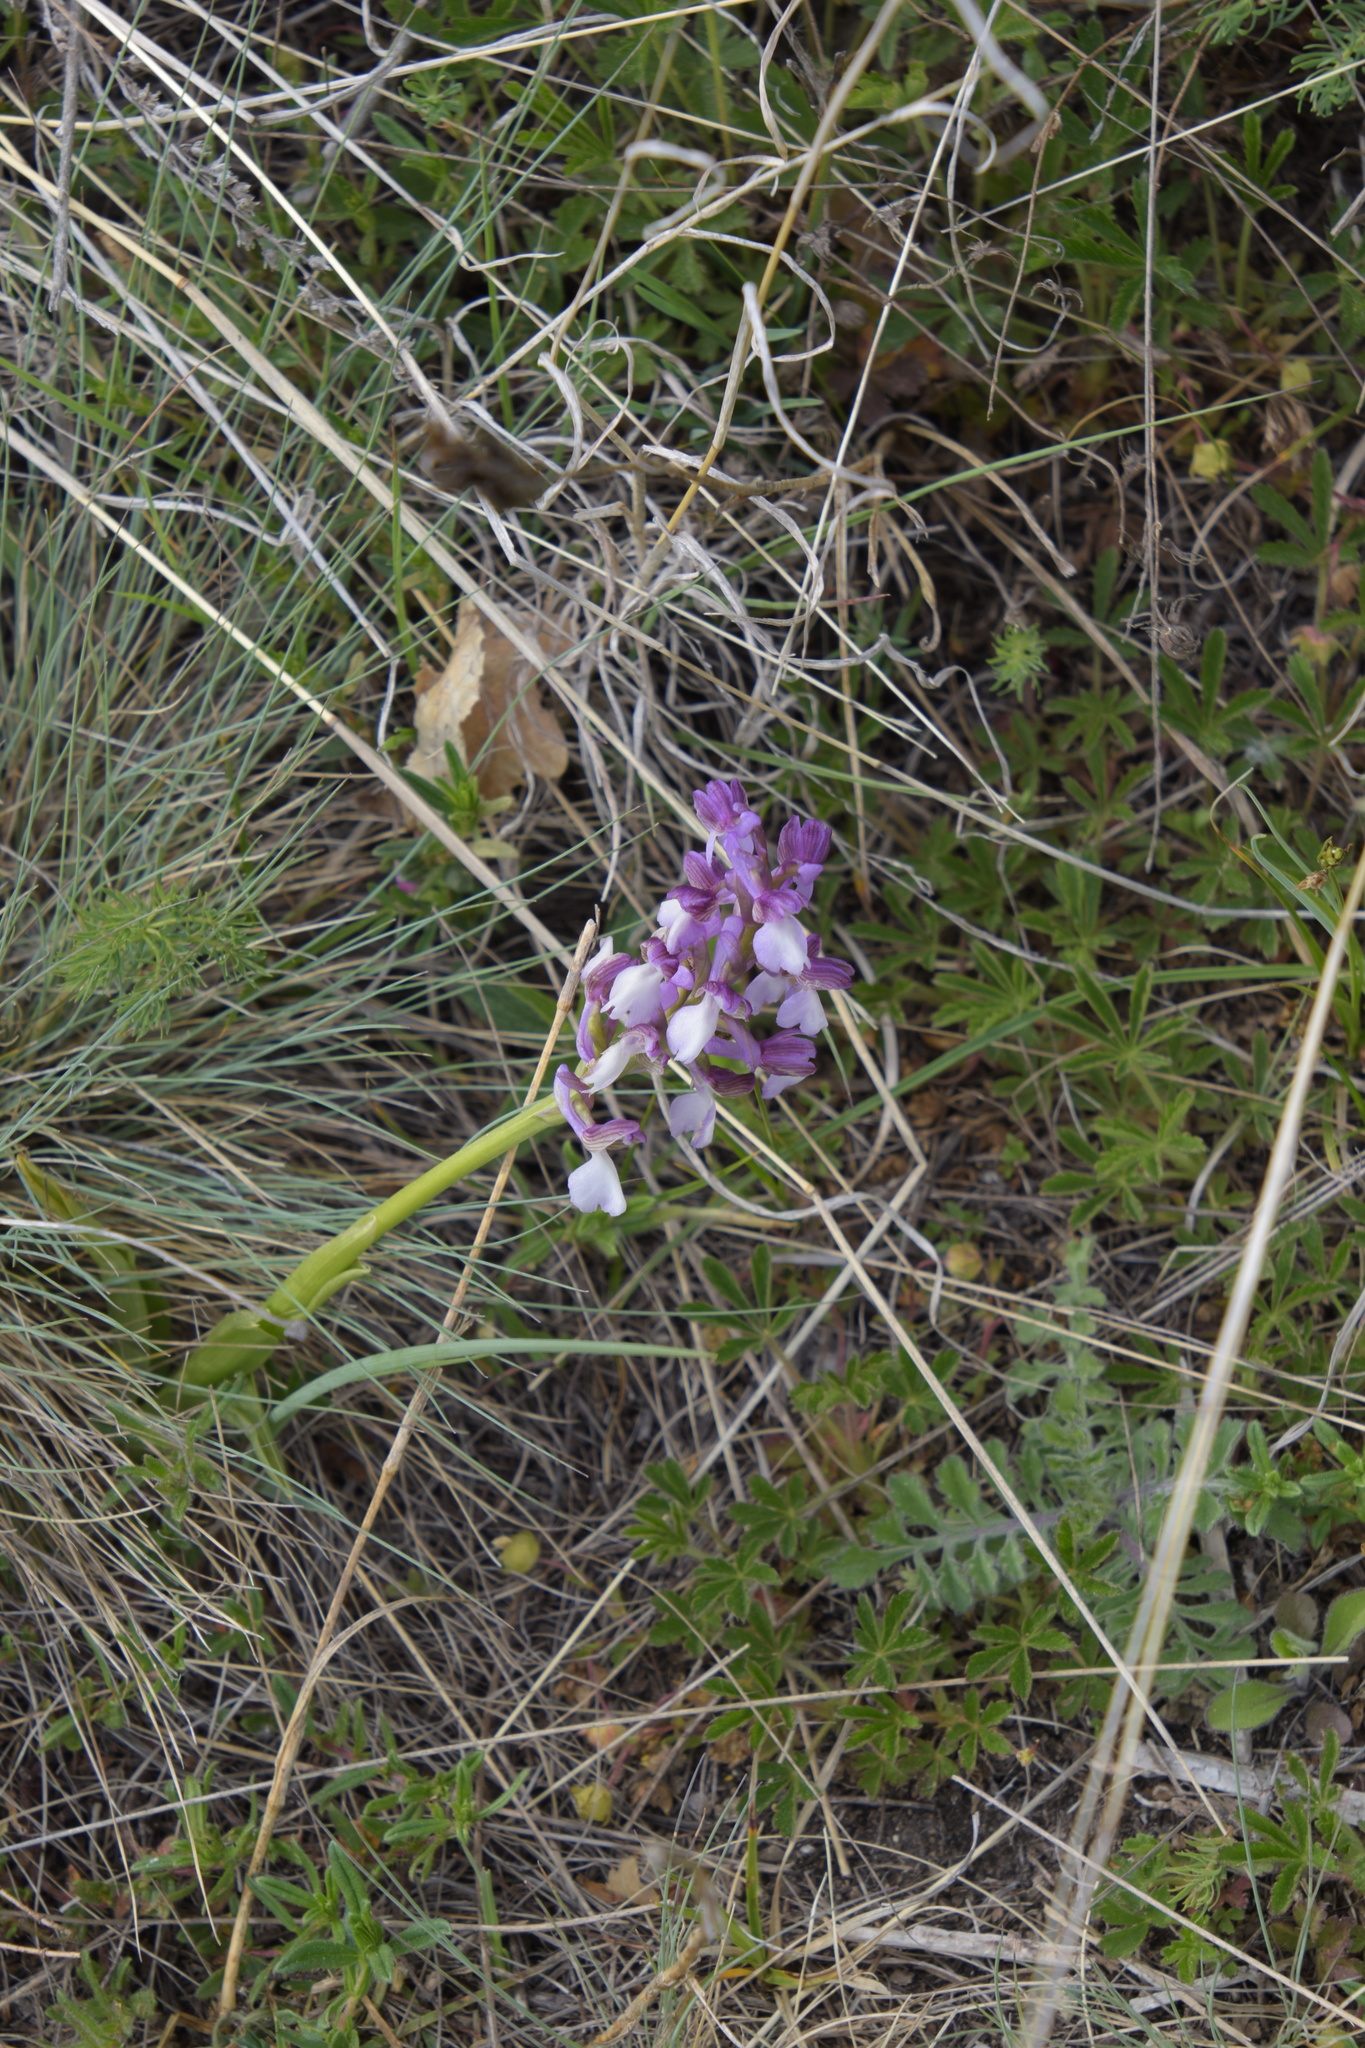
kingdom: Plantae
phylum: Tracheophyta
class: Liliopsida
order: Asparagales
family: Orchidaceae
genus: Anacamptis
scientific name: Anacamptis morio
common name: Green-winged orchid
